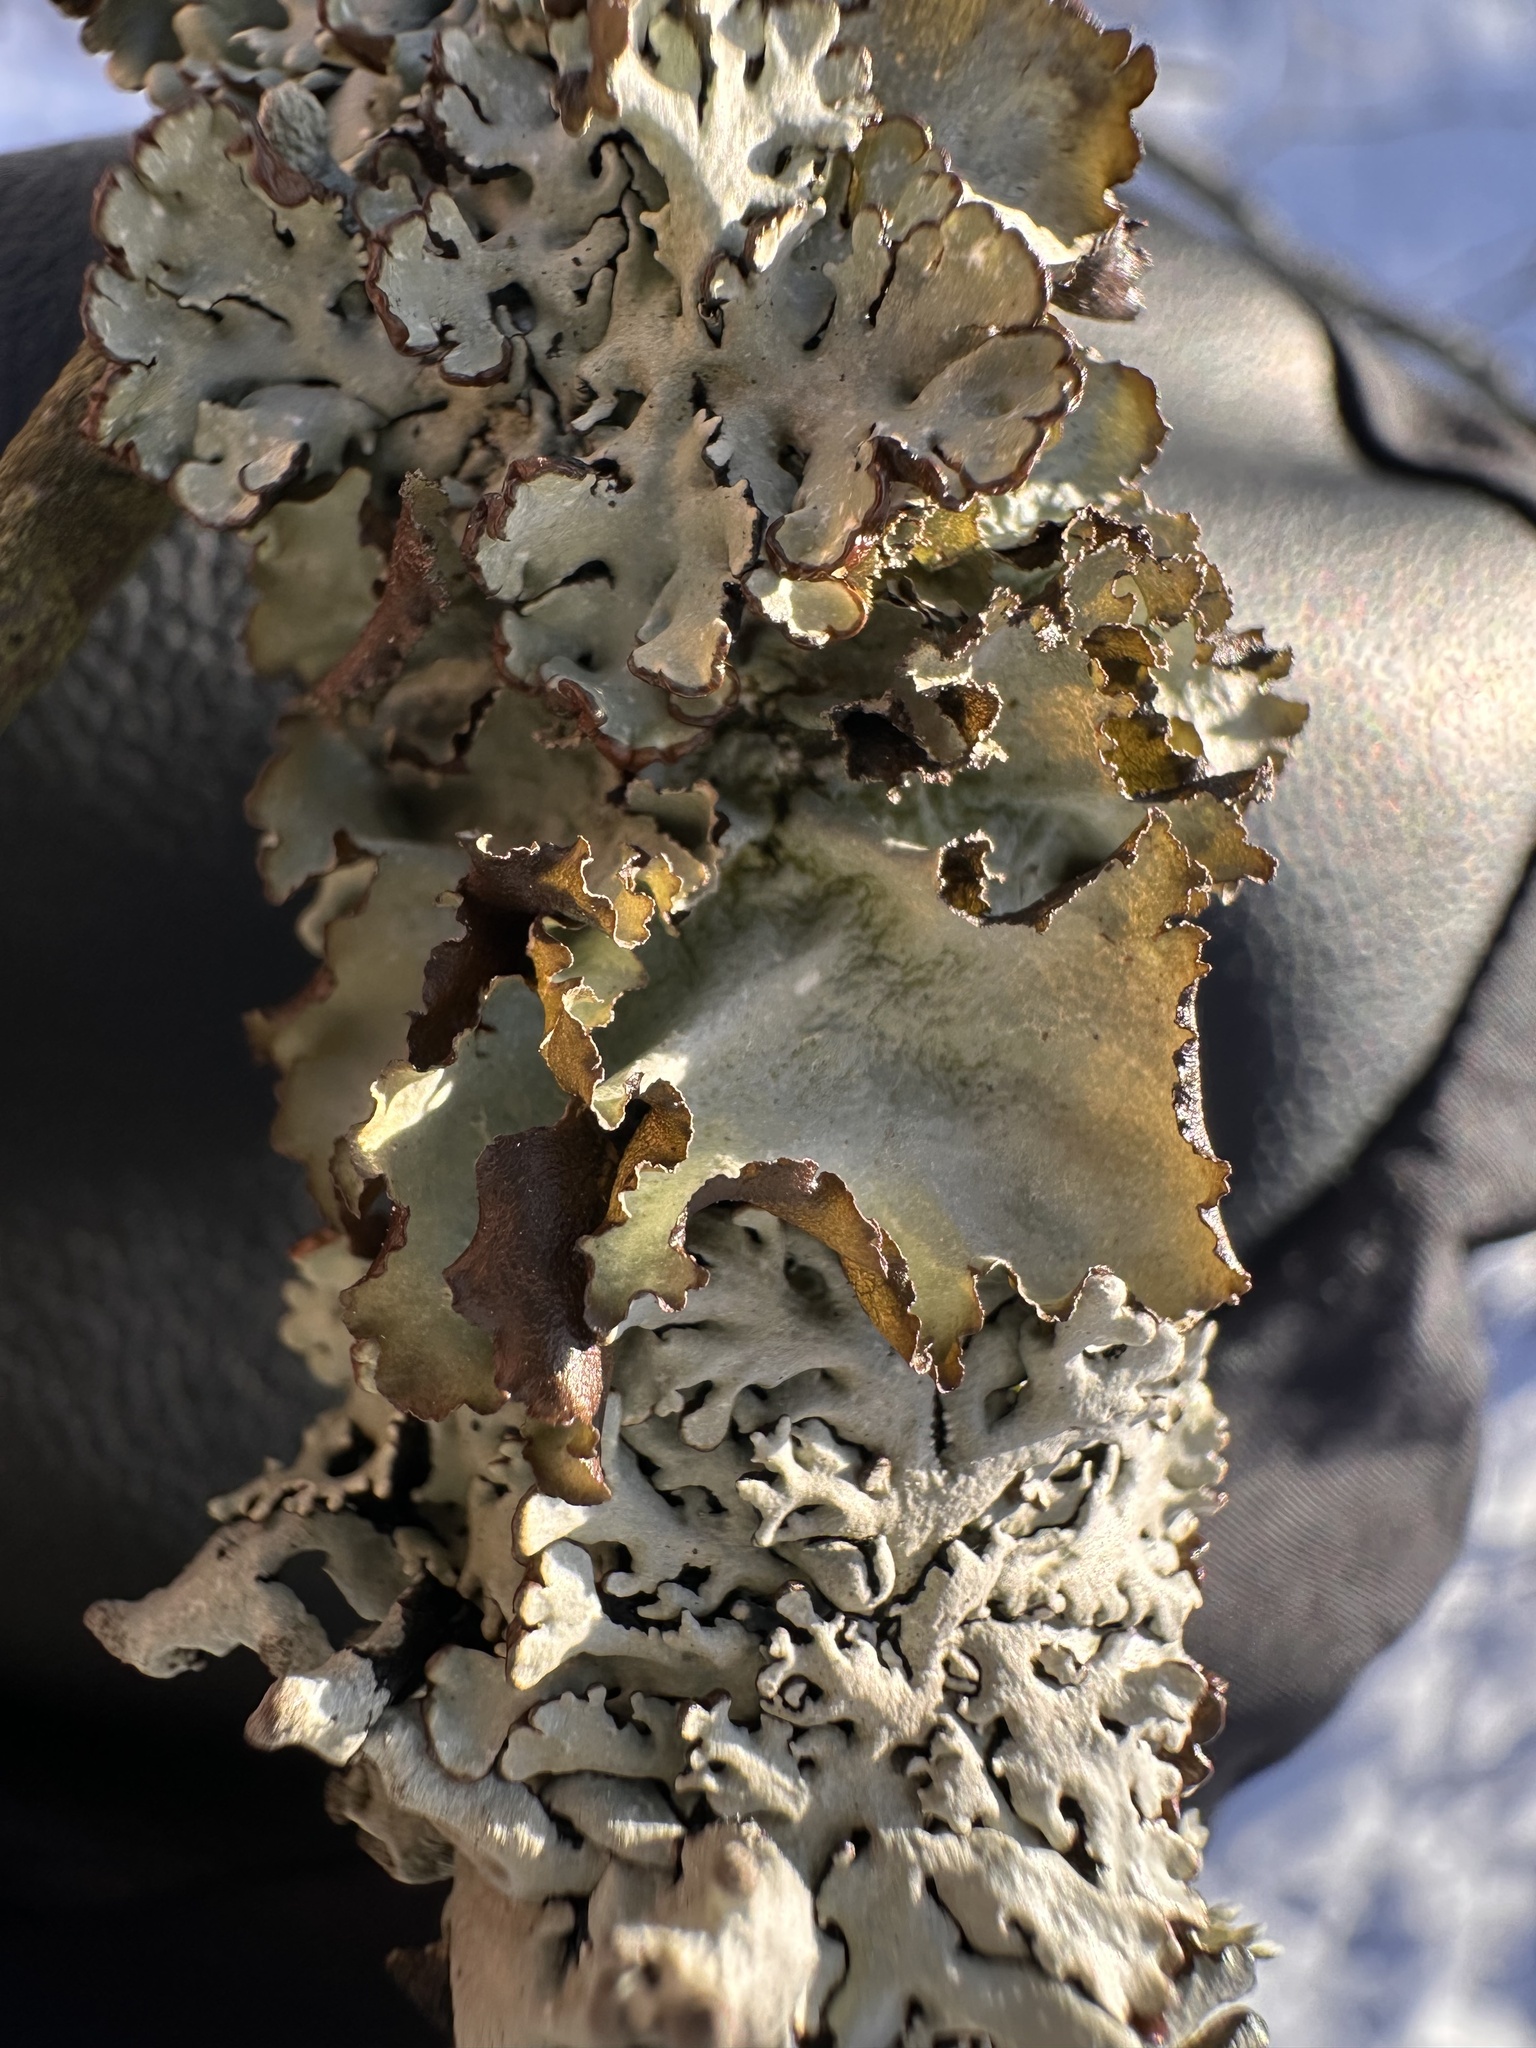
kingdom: Fungi
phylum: Ascomycota
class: Lecanoromycetes
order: Lecanorales
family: Parmeliaceae
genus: Platismatia
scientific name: Platismatia glauca
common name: Varied rag lichen
